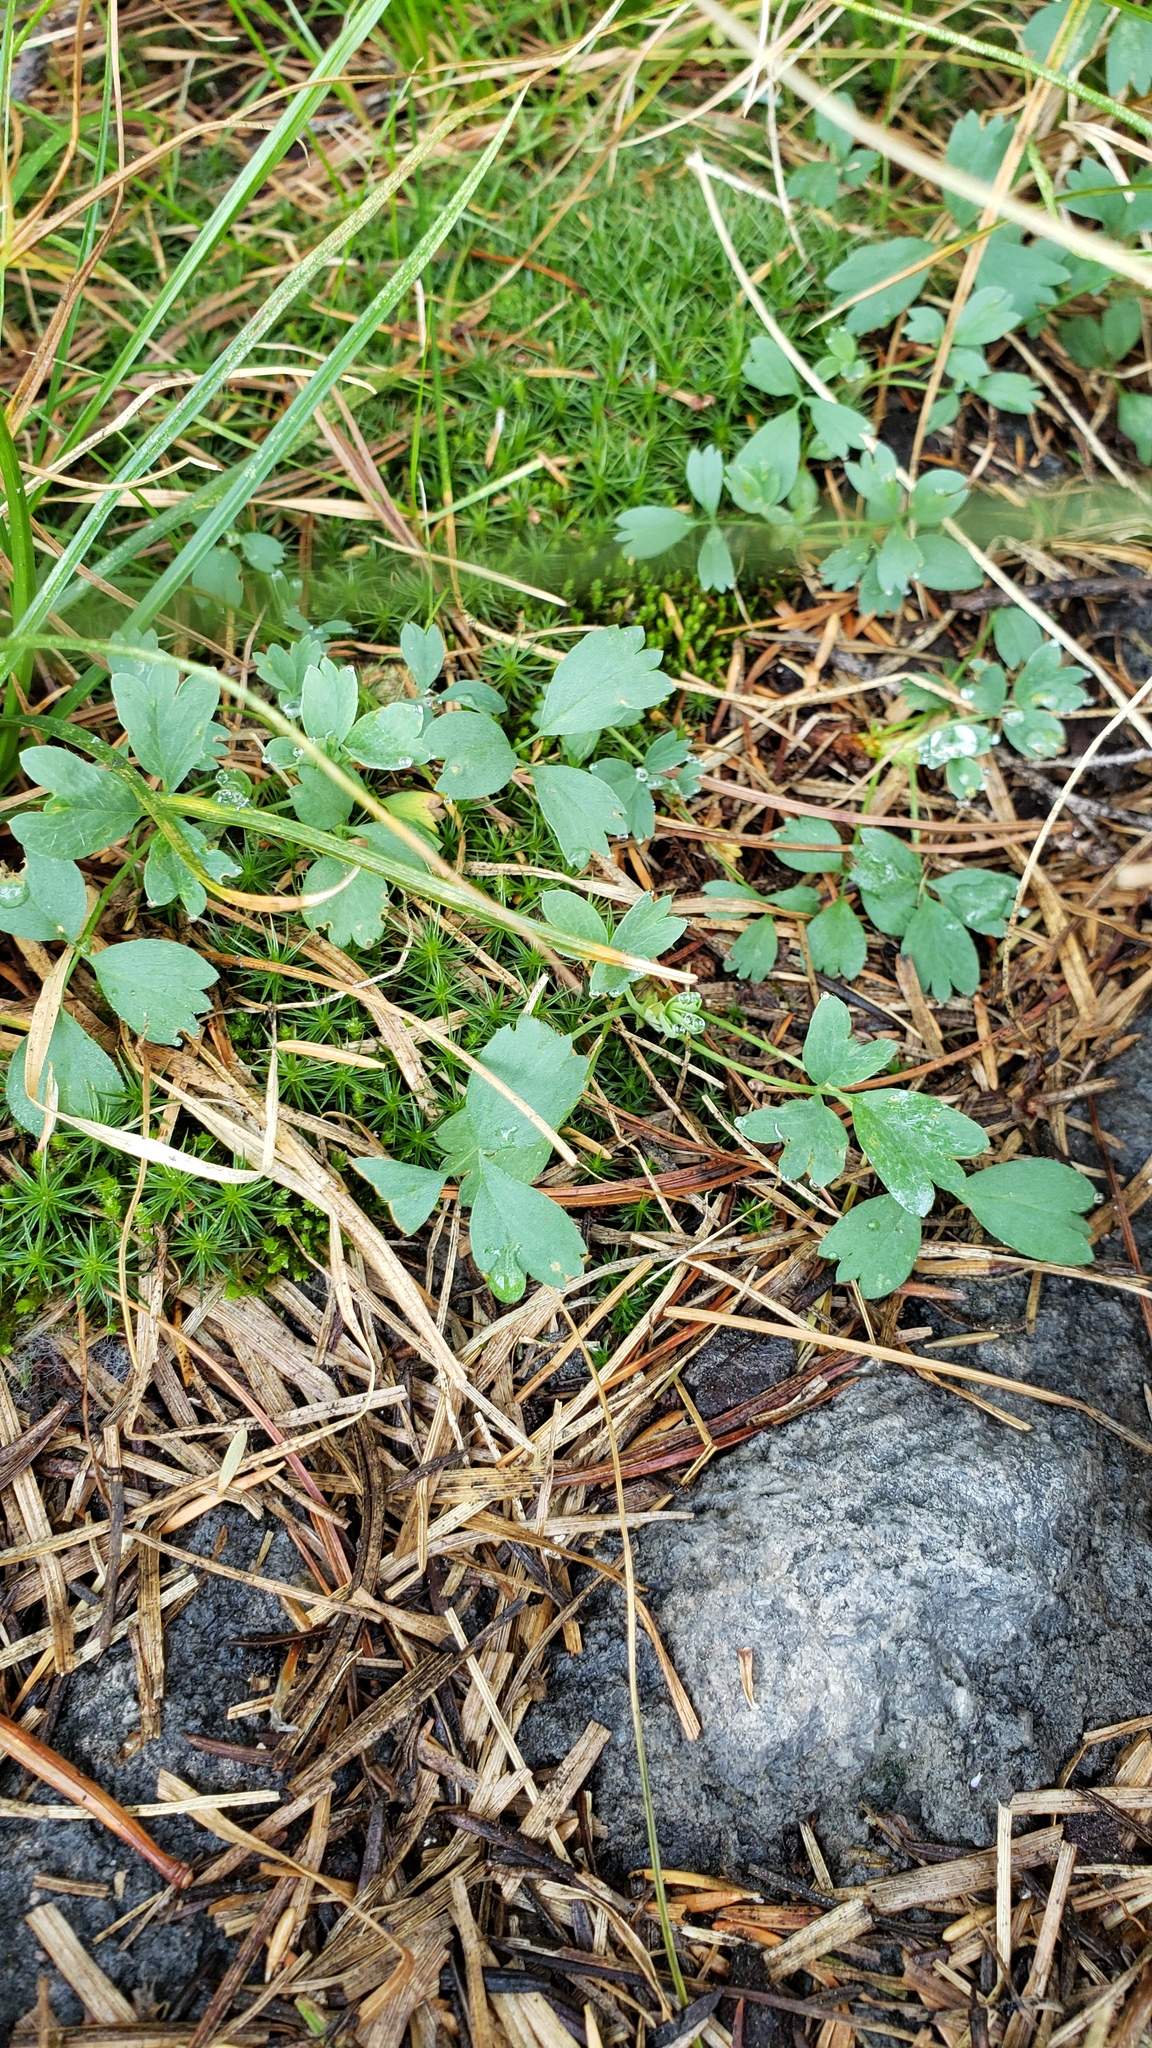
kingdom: Plantae
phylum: Tracheophyta
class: Magnoliopsida
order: Rosales
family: Rosaceae
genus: Sibbaldia
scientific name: Sibbaldia procumbens
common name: Creeping sibbaldia
